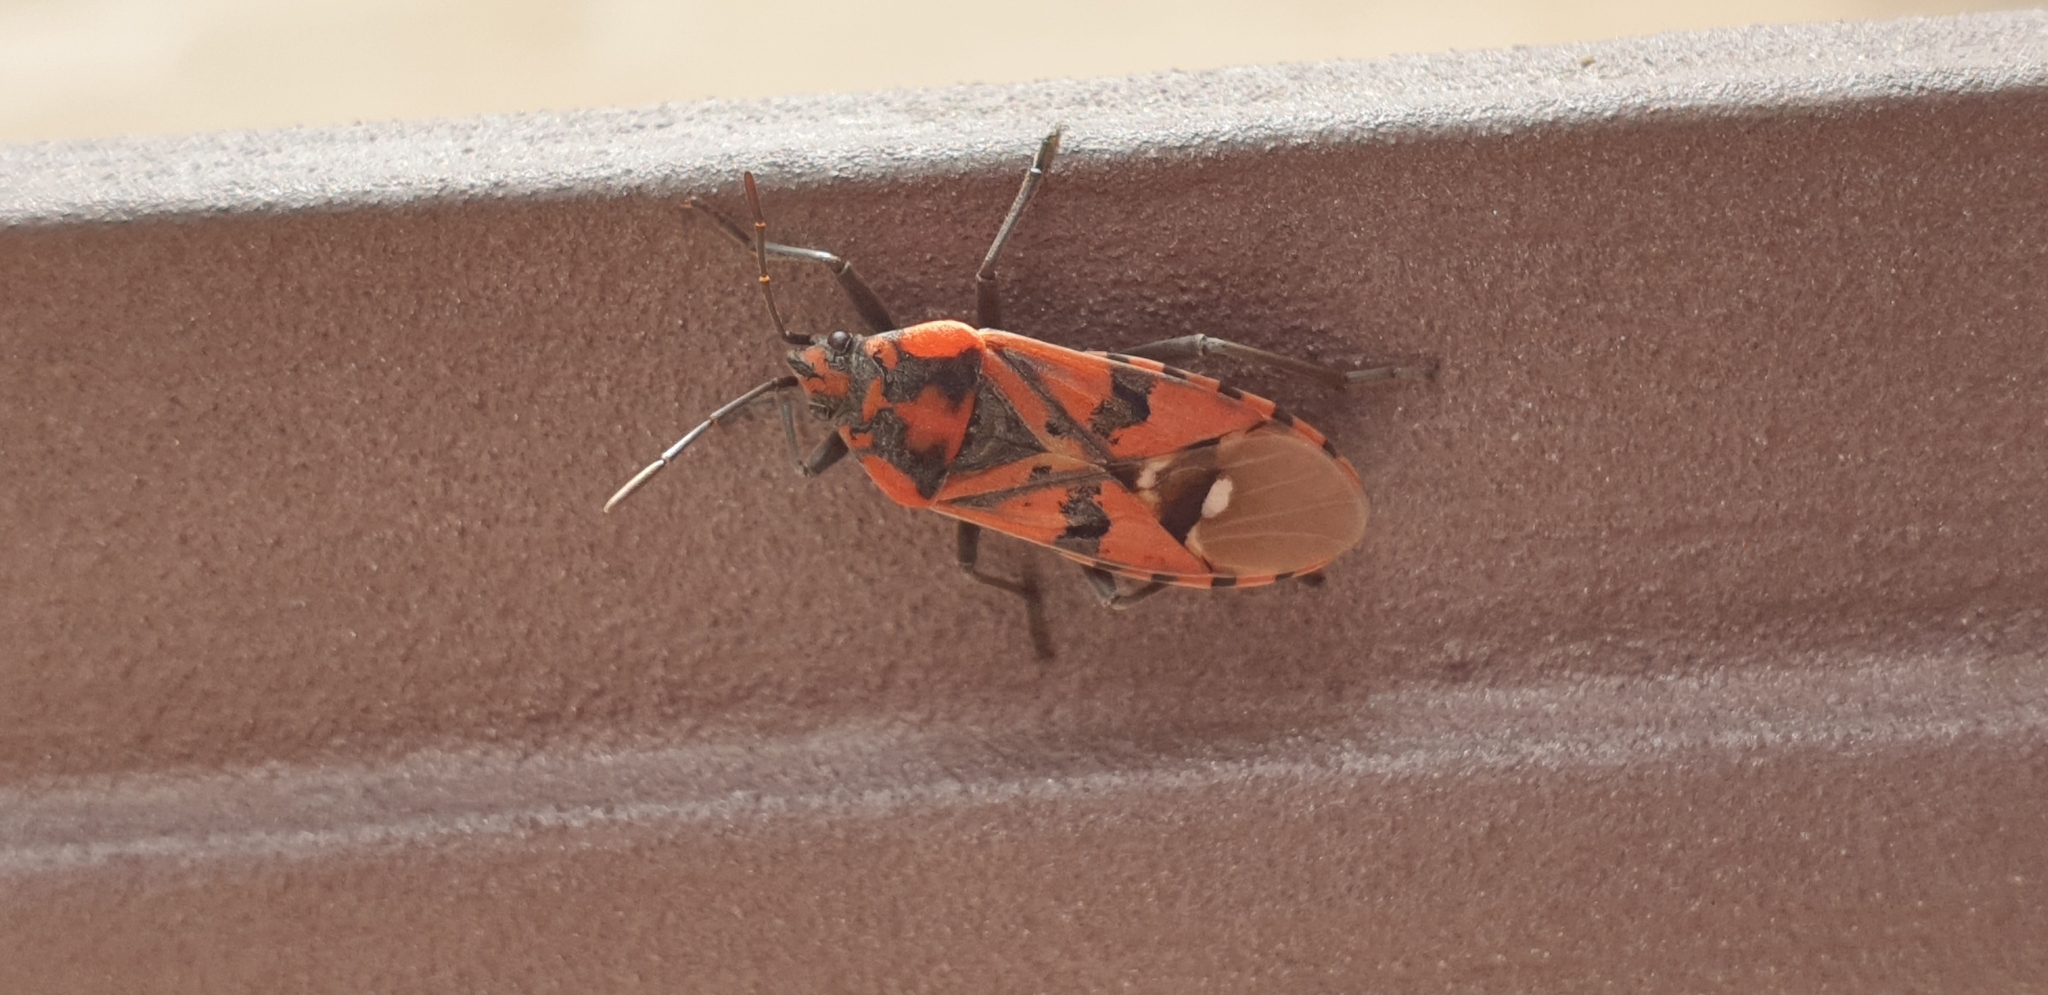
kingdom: Animalia
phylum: Arthropoda
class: Insecta
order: Hemiptera
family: Lygaeidae
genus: Spilostethus
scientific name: Spilostethus pandurus
